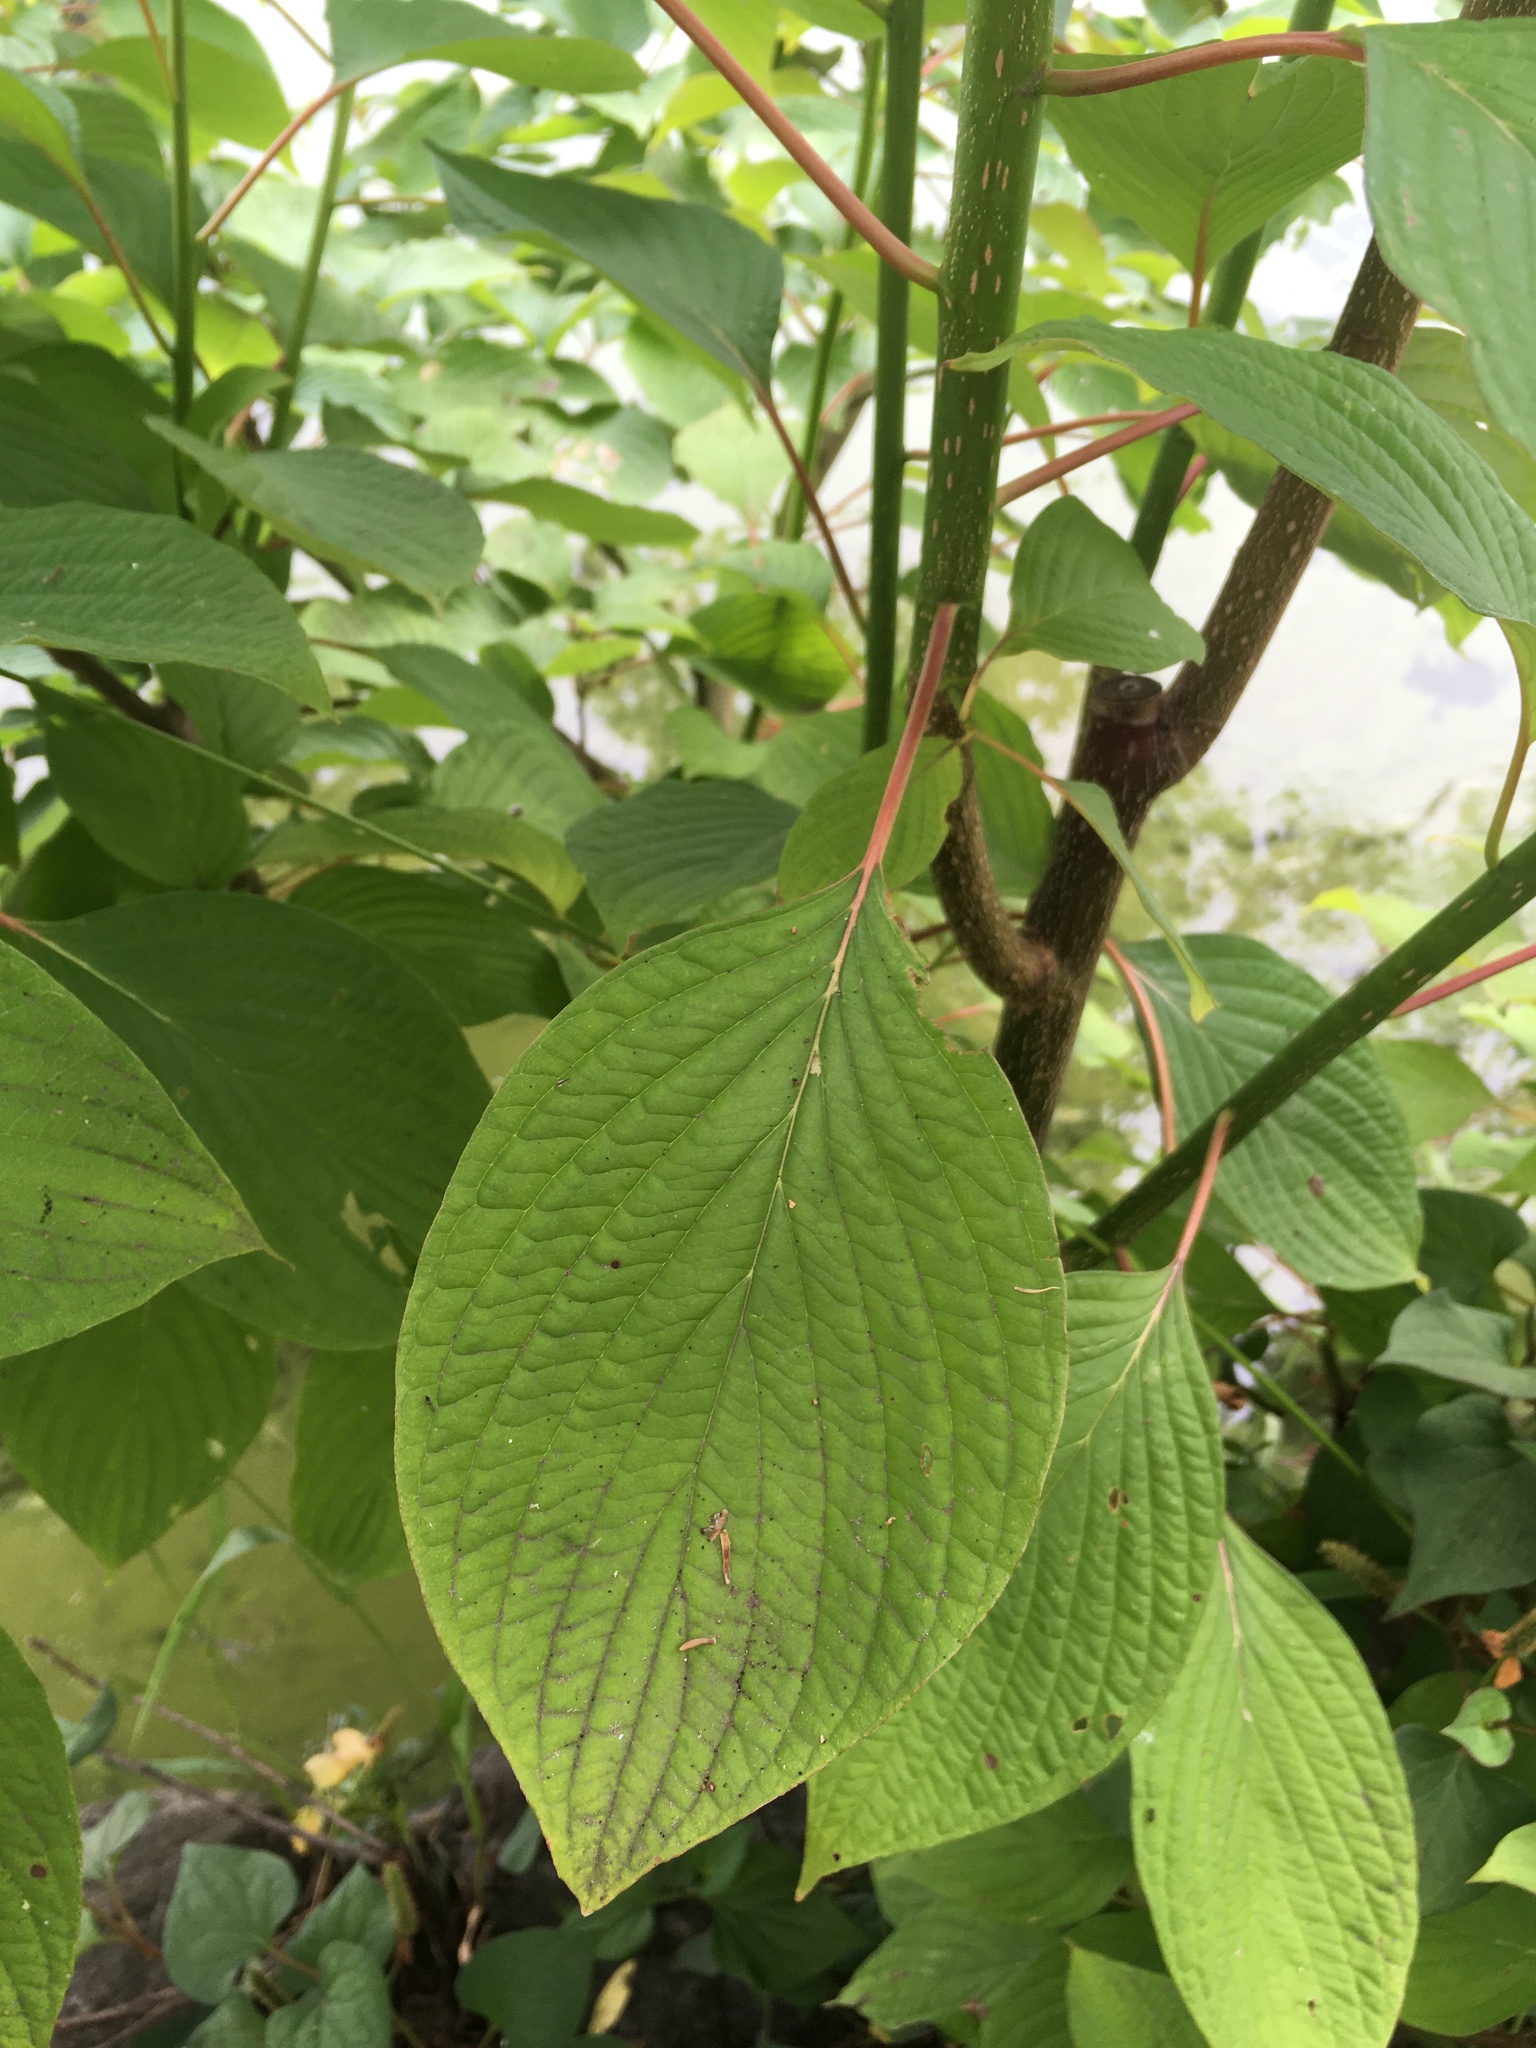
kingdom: Plantae
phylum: Tracheophyta
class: Magnoliopsida
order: Cornales
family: Cornaceae
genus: Cornus
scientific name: Cornus controversa
